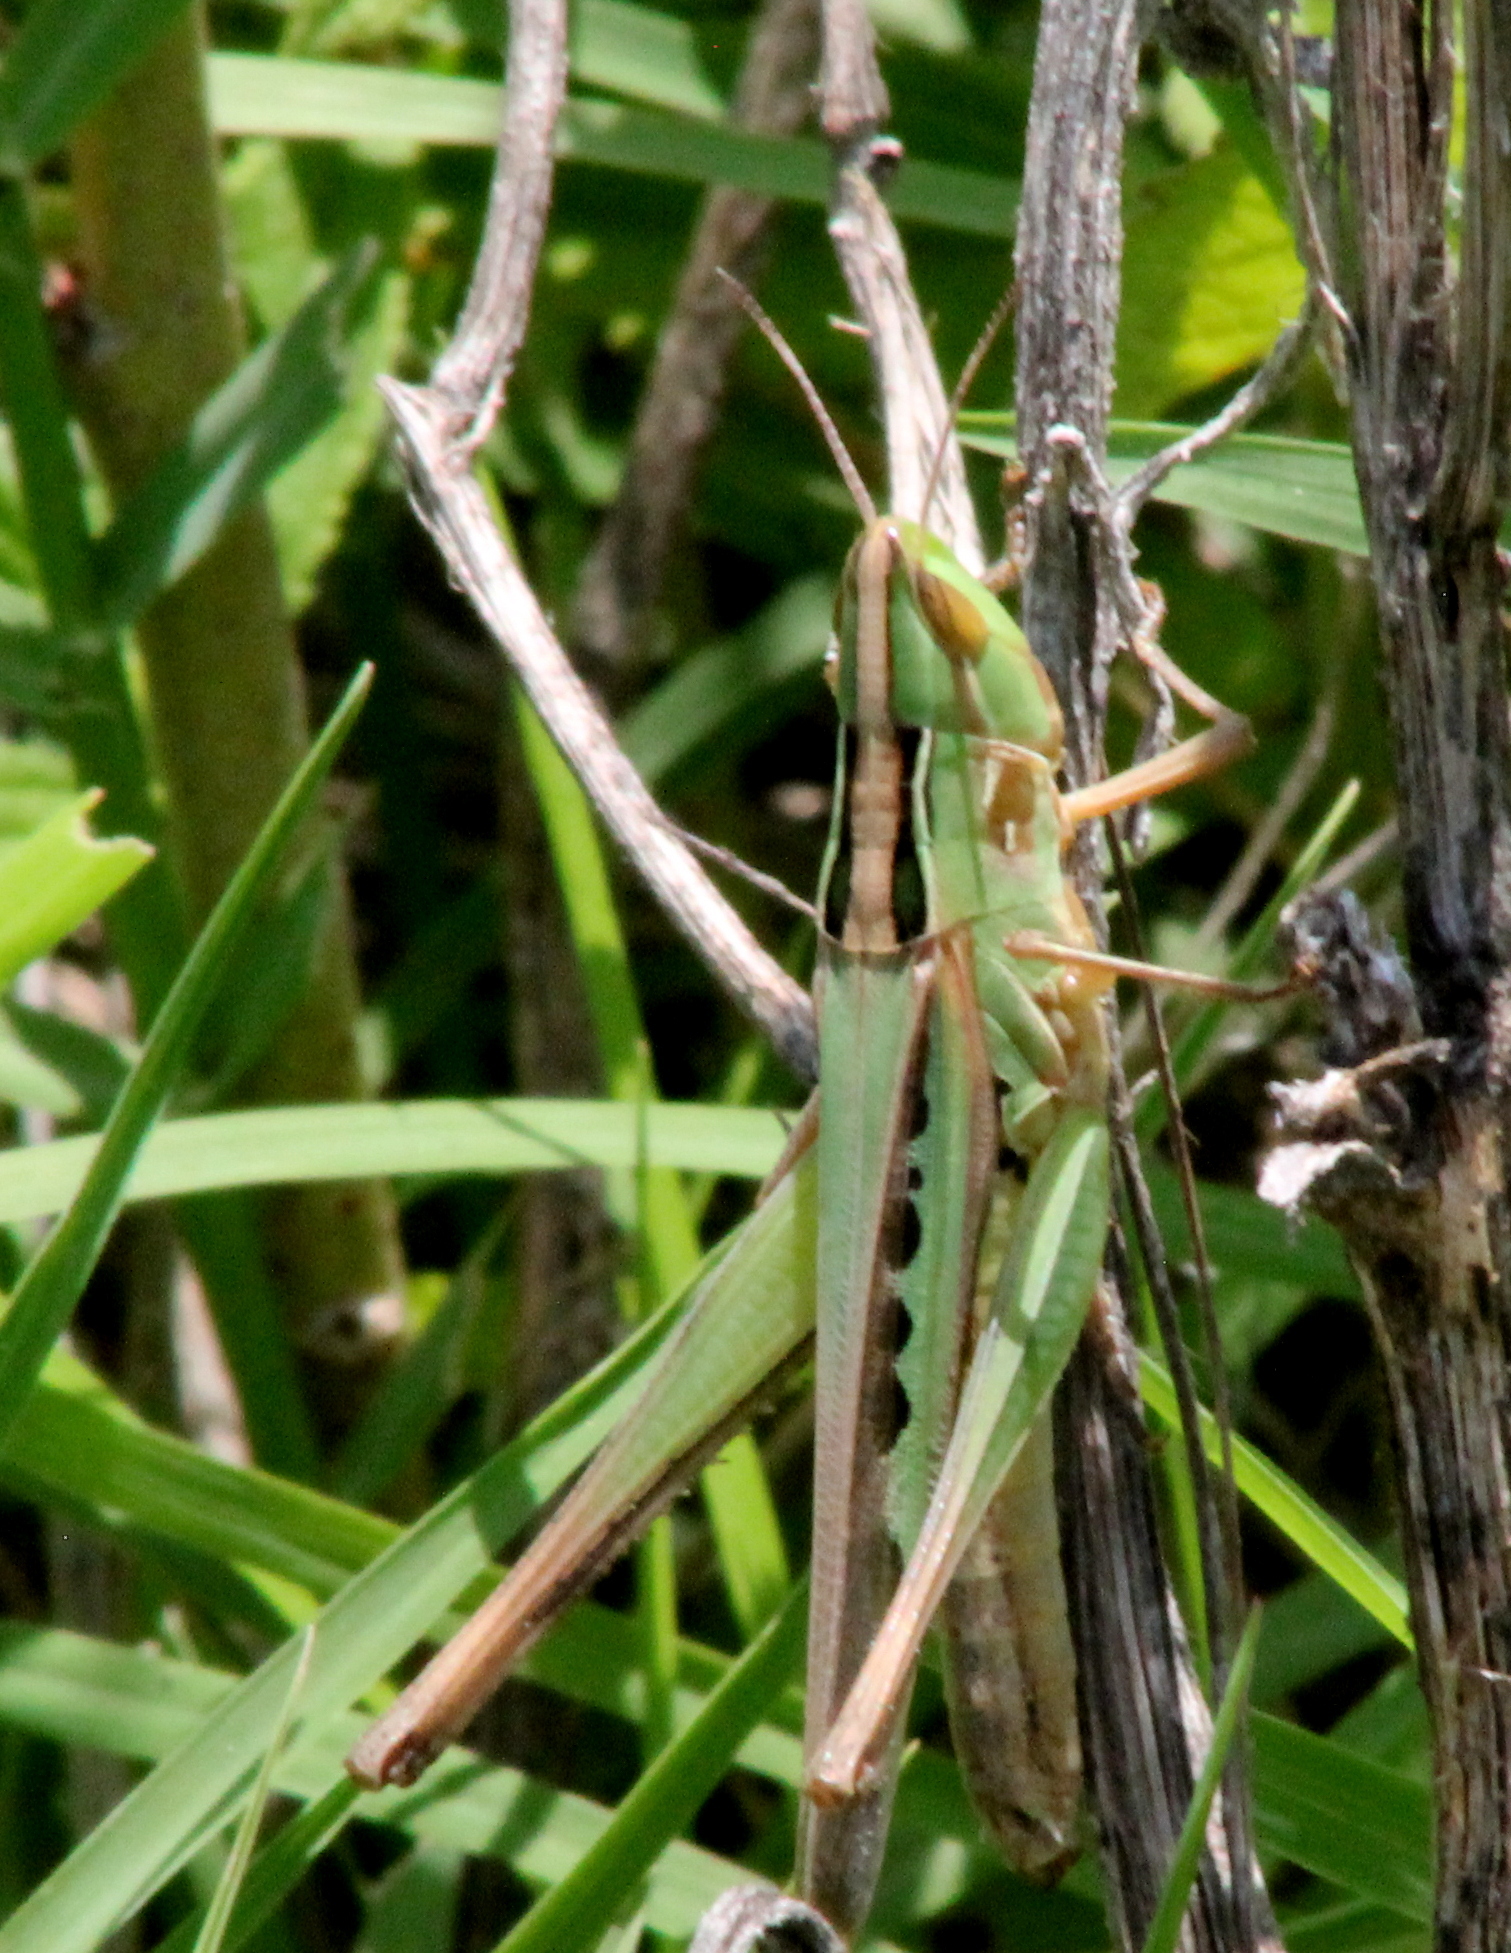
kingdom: Animalia
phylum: Arthropoda
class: Insecta
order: Orthoptera
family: Acrididae
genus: Syrbula
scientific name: Syrbula admirabilis
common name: Handsome grasshopper
